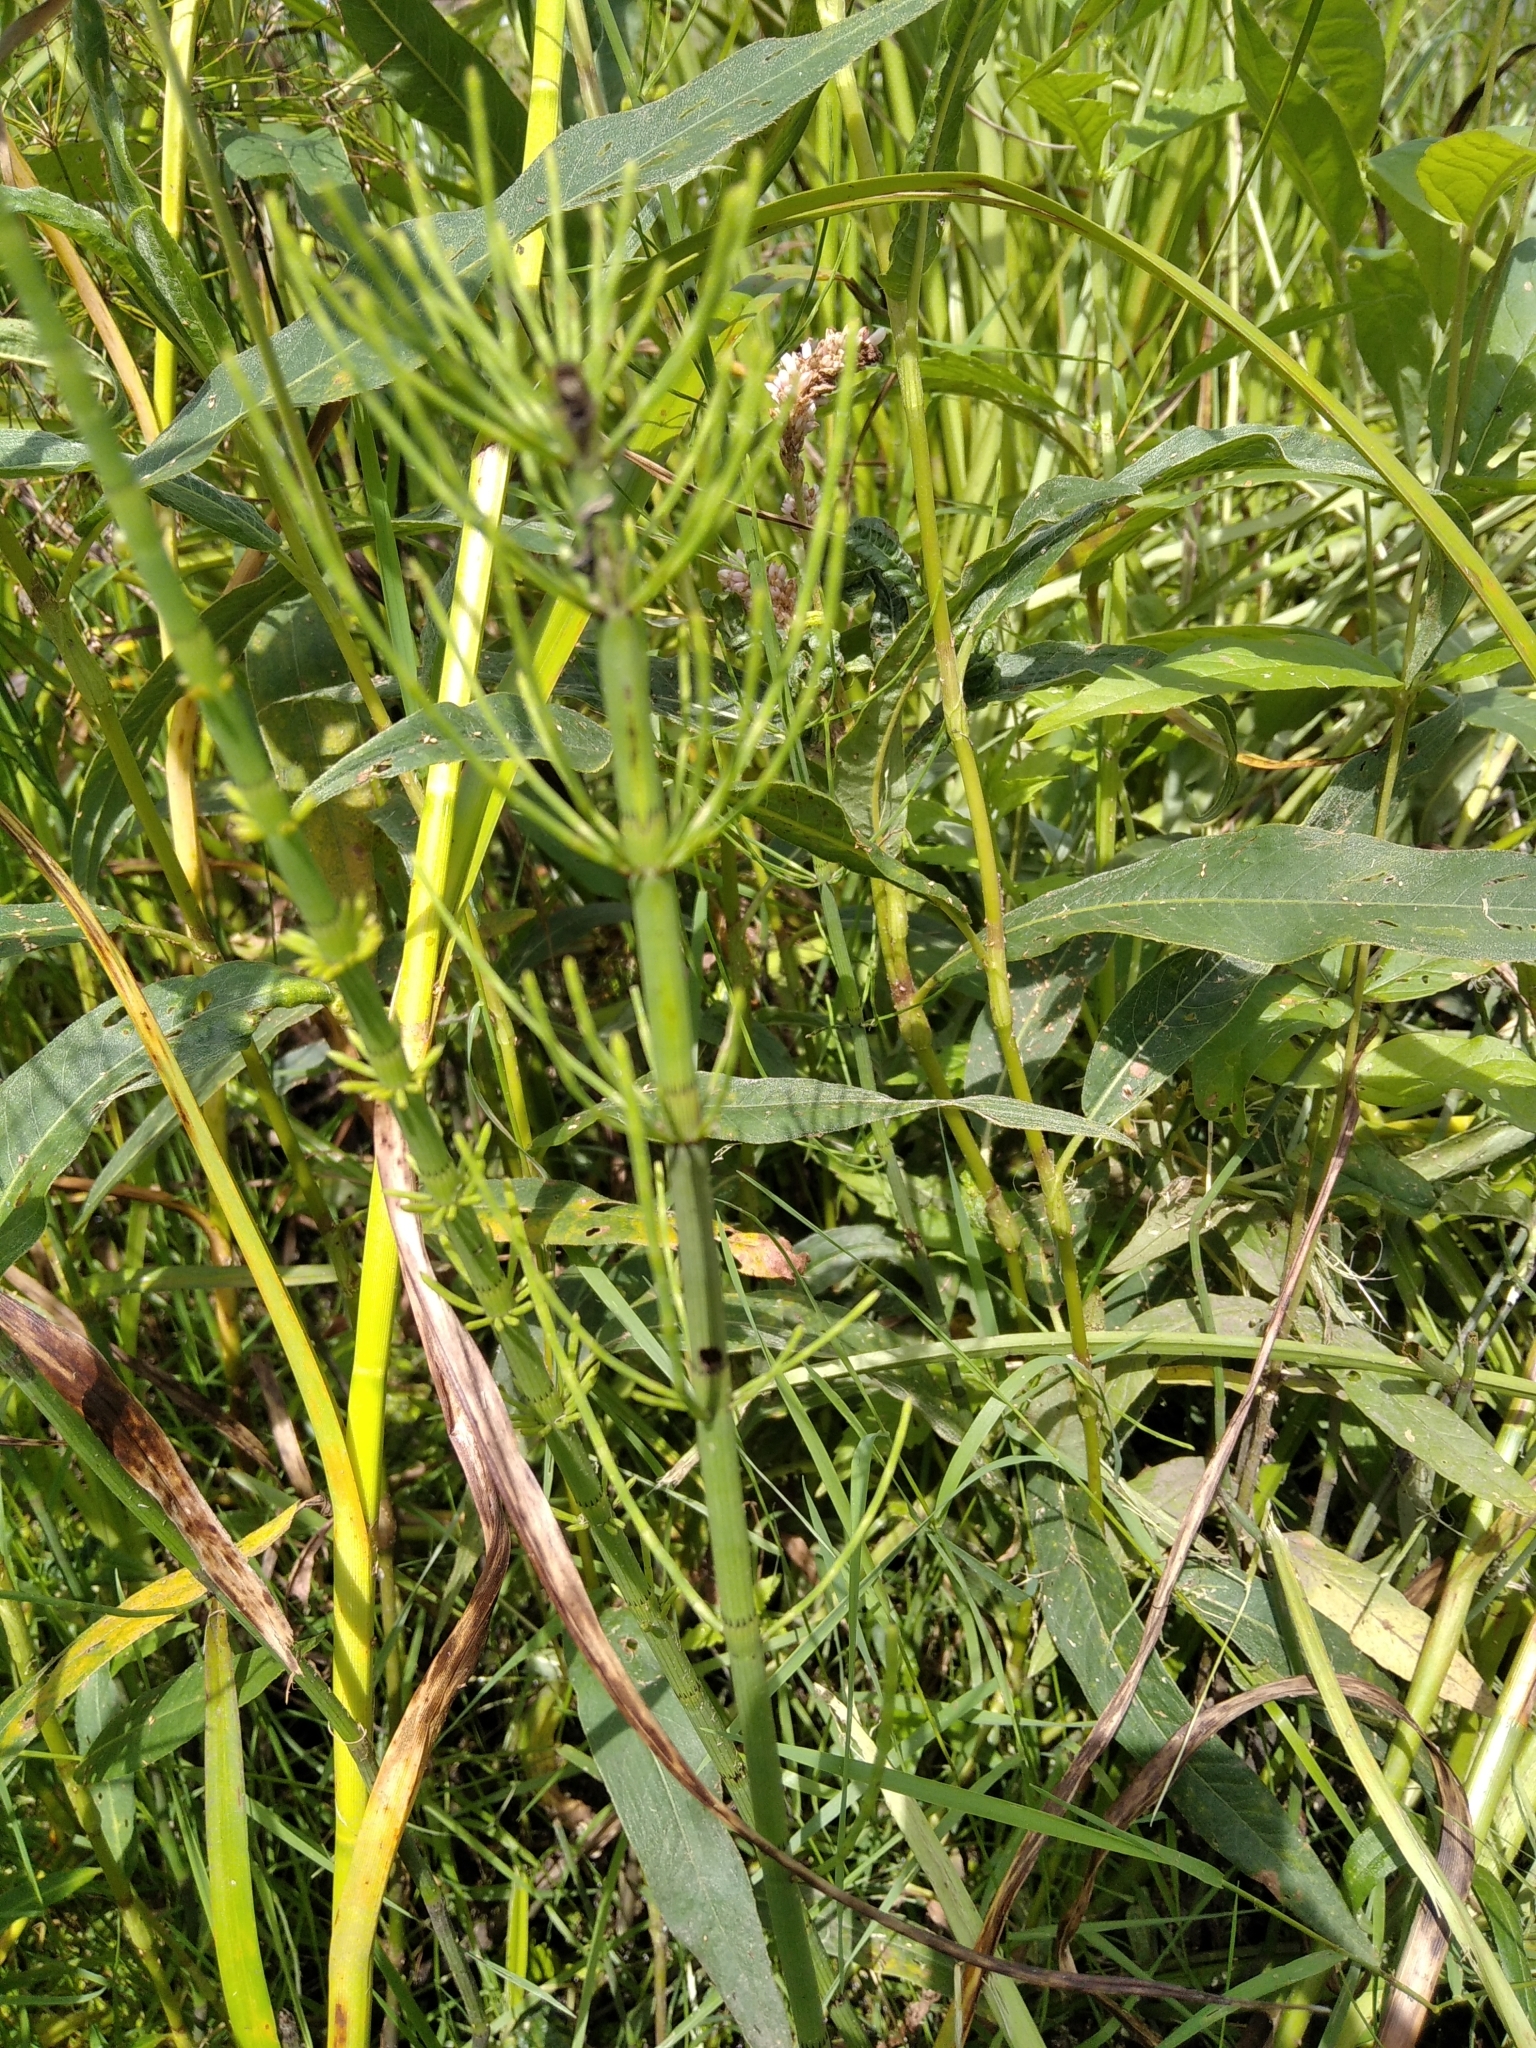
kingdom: Plantae
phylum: Tracheophyta
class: Polypodiopsida
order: Equisetales
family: Equisetaceae
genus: Equisetum
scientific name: Equisetum fluviatile
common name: Water horsetail
